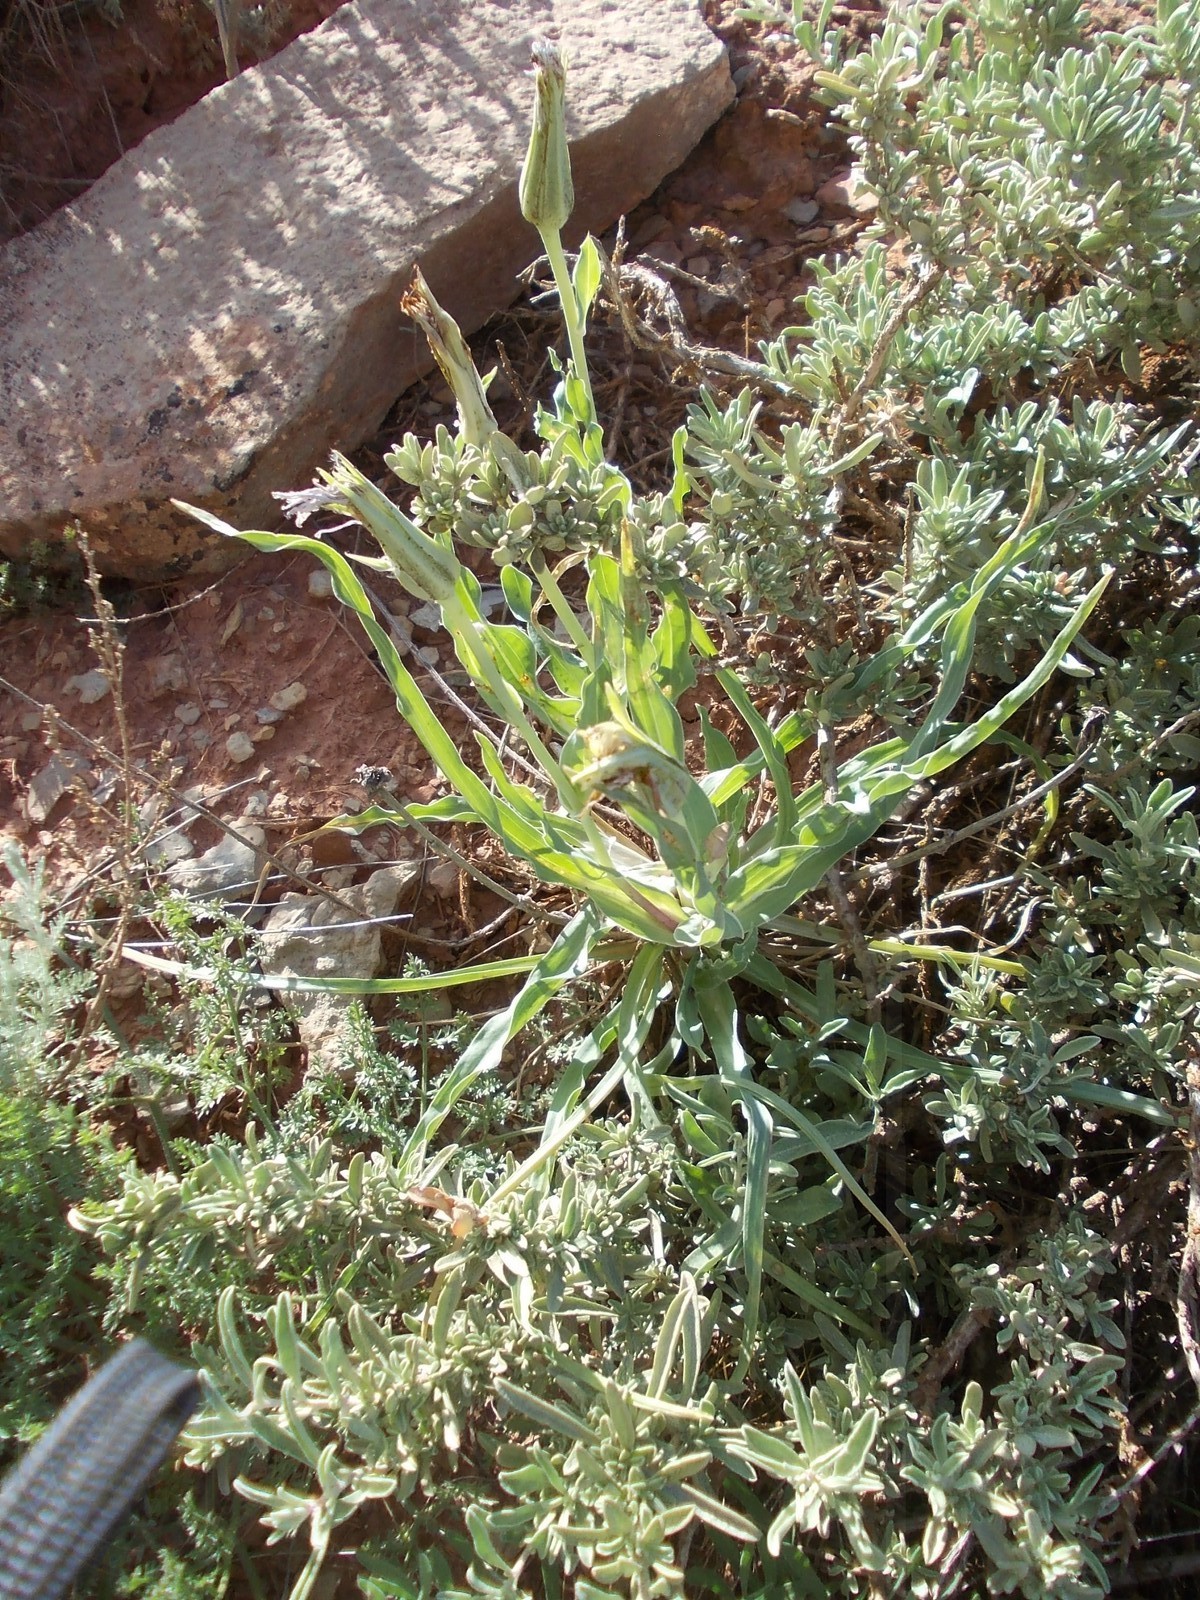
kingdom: Plantae
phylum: Tracheophyta
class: Magnoliopsida
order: Caryophyllales
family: Amaranthaceae
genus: Atriplex
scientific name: Atriplex cana
